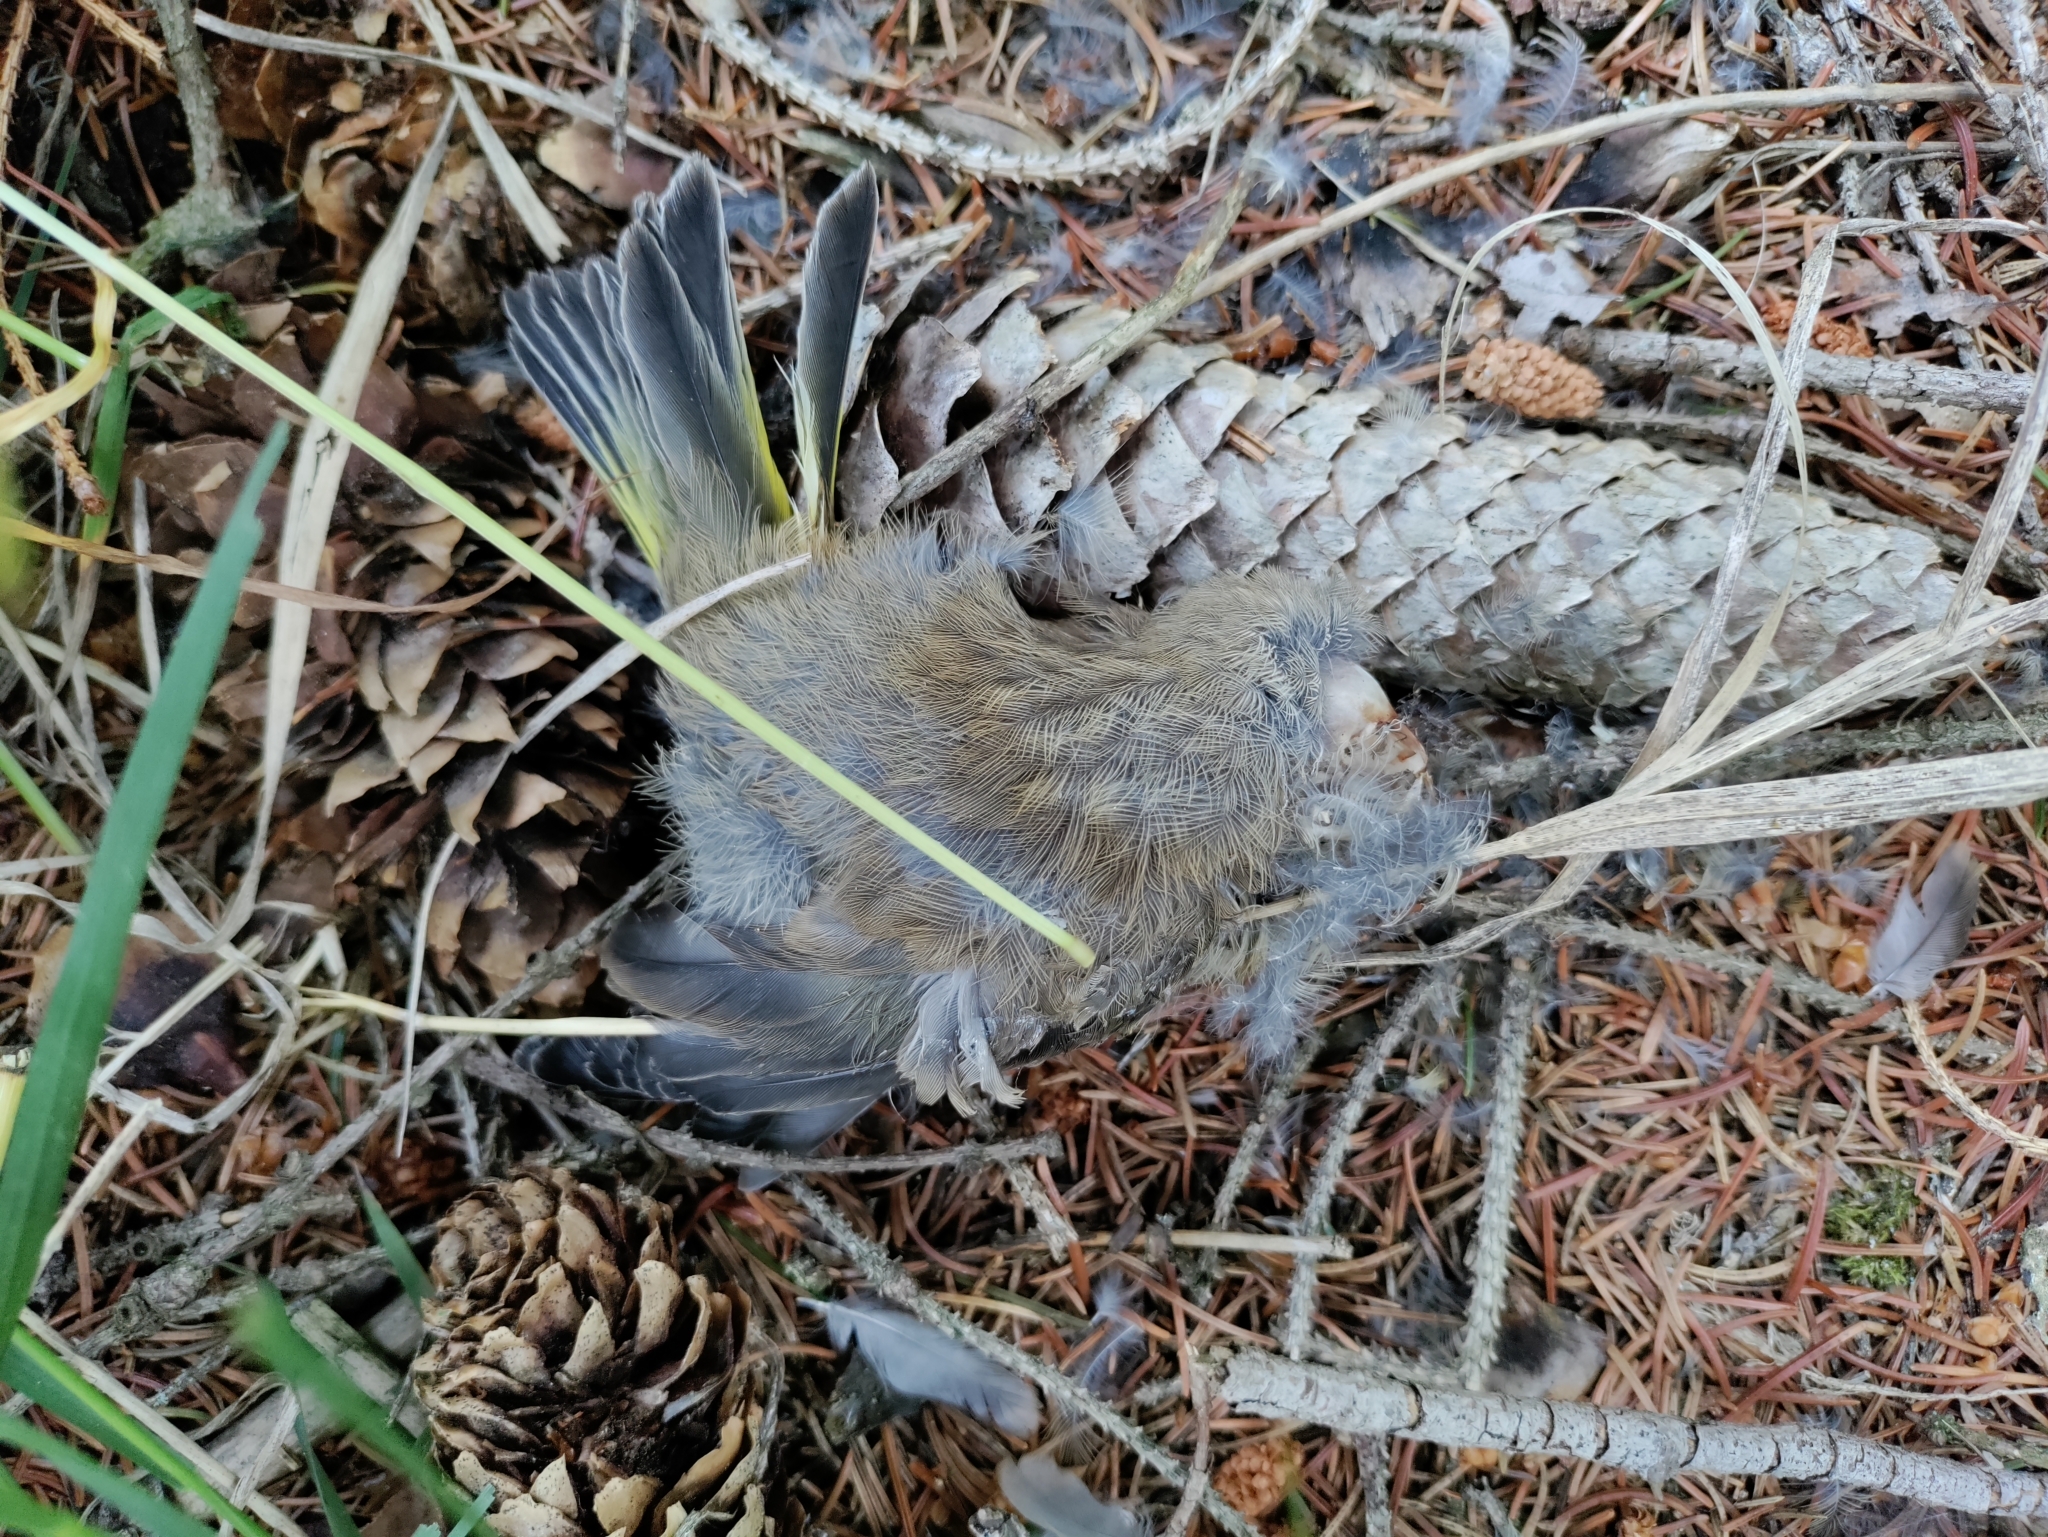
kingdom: Plantae
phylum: Tracheophyta
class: Liliopsida
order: Poales
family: Poaceae
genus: Chloris
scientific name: Chloris chloris
